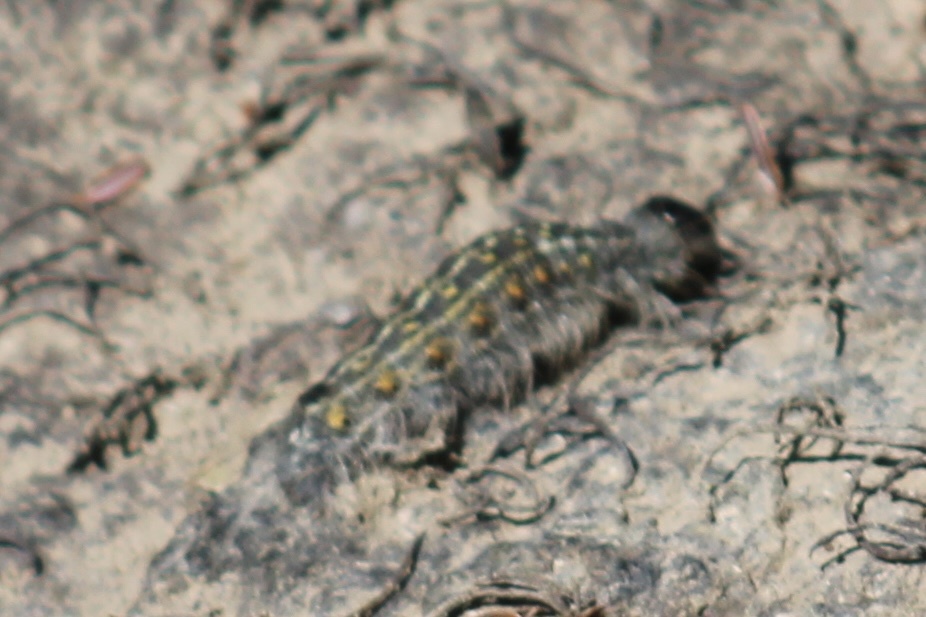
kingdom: Animalia
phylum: Arthropoda
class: Insecta
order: Lepidoptera
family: Noctuidae
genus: Acronicta
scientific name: Acronicta lobeliae
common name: Greater oak dagger
